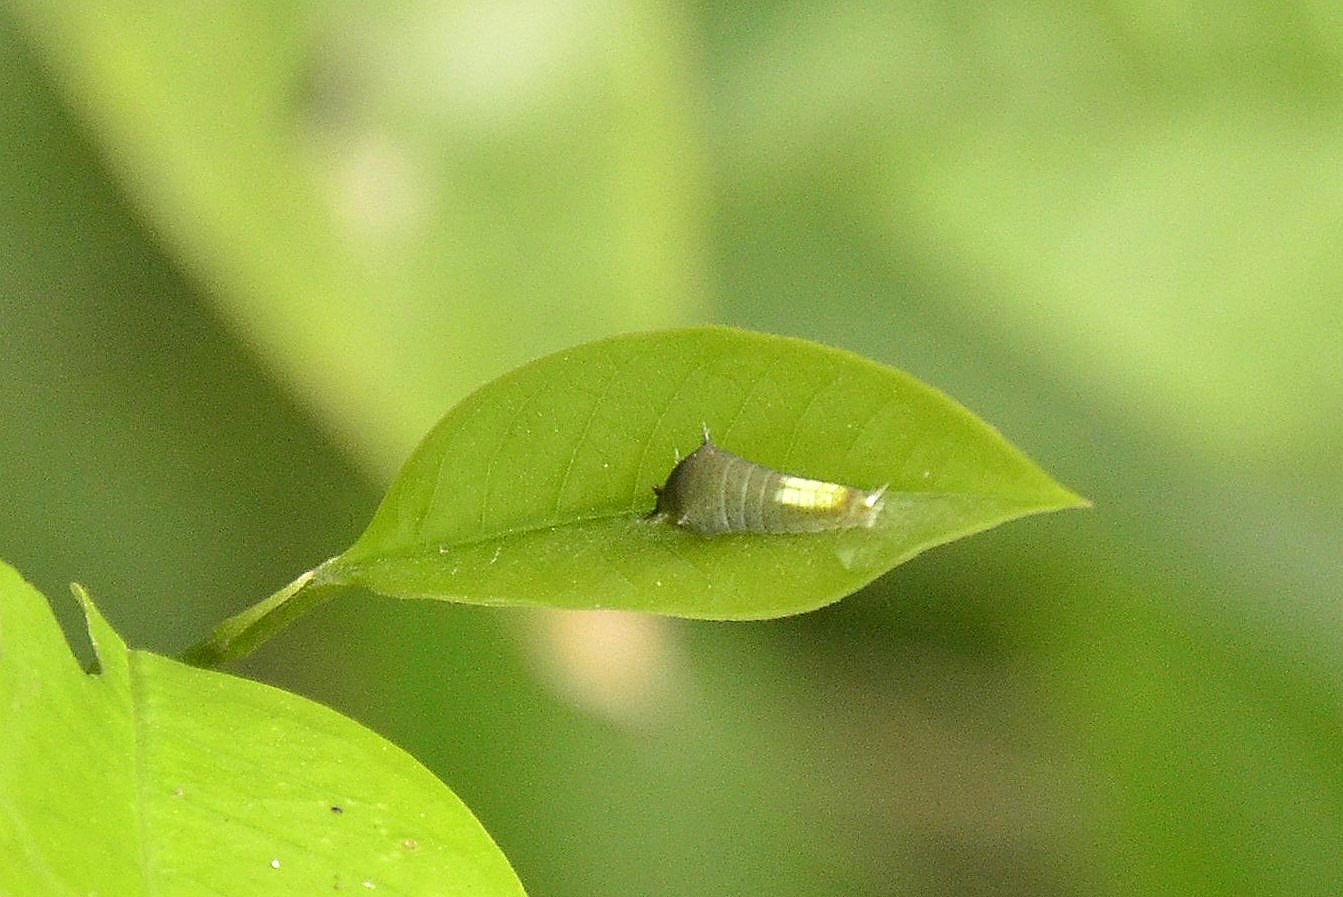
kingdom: Animalia
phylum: Arthropoda
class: Insecta
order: Lepidoptera
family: Papilionidae
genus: Graphium
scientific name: Graphium agamemnon
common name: Tailed jay
